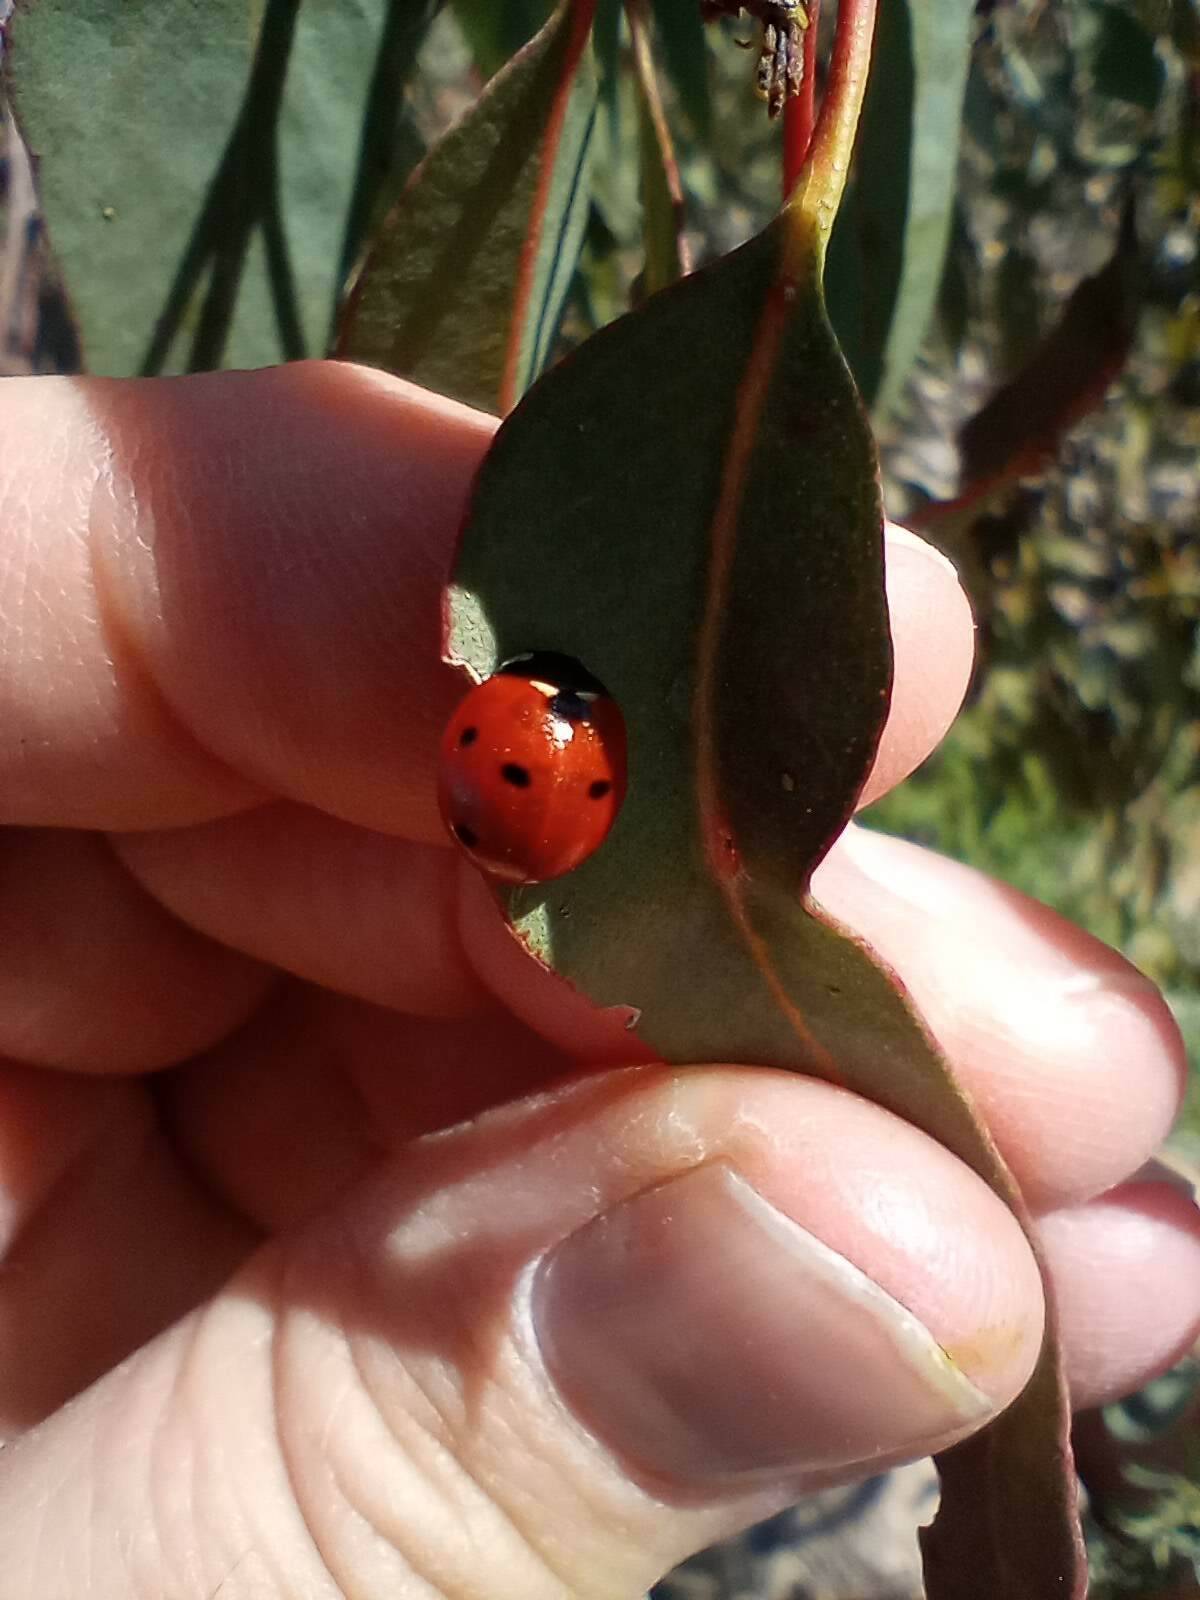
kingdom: Animalia
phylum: Arthropoda
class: Insecta
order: Coleoptera
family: Coccinellidae
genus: Coccinella
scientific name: Coccinella septempunctata
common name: Sevenspotted lady beetle
